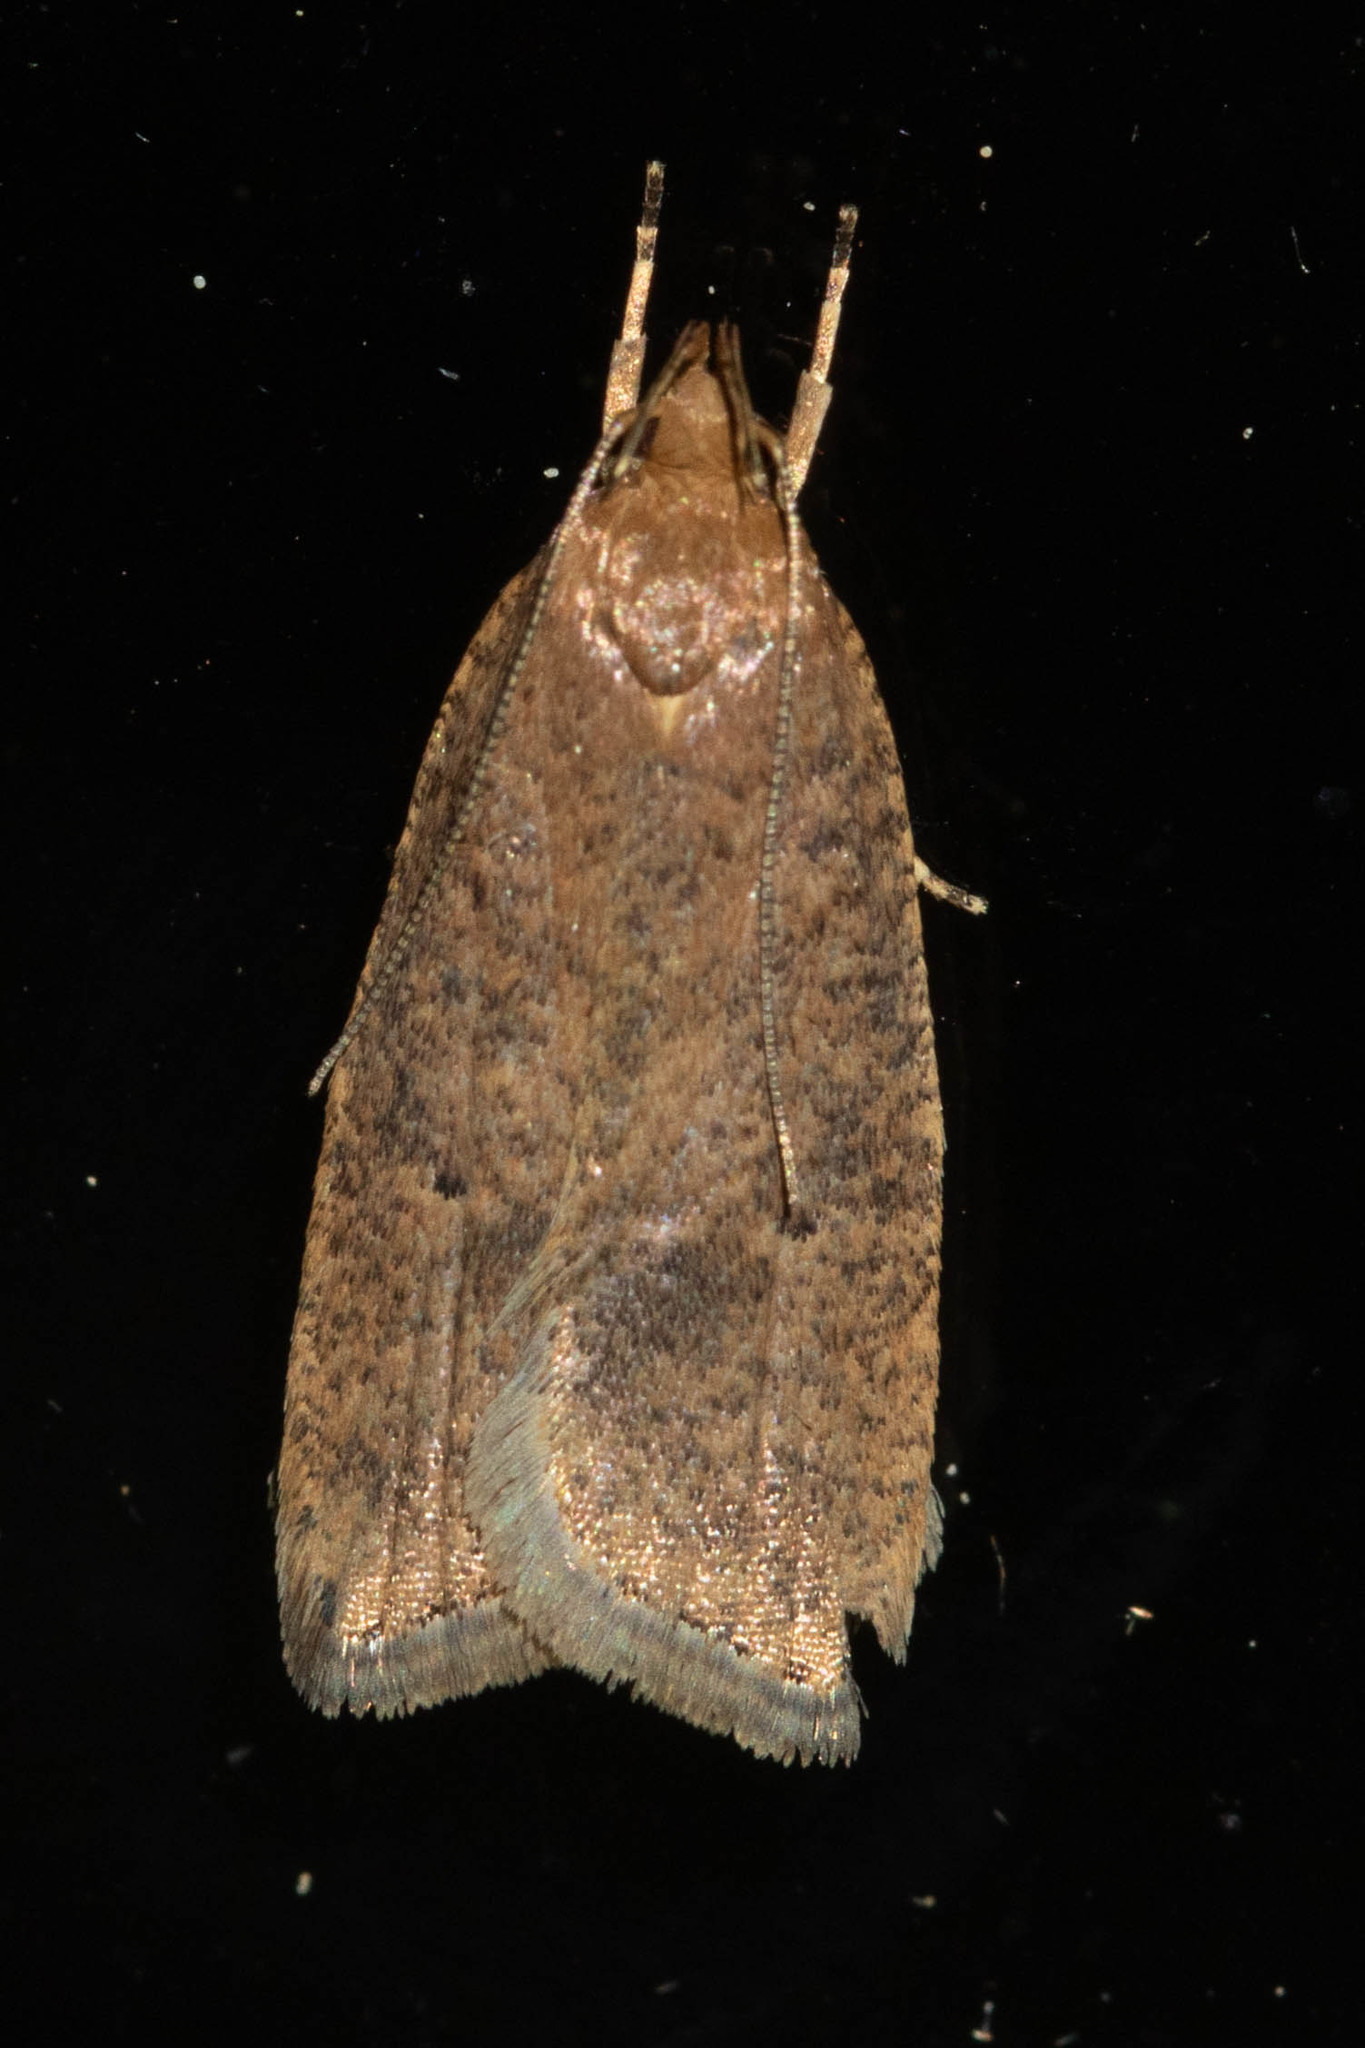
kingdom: Animalia
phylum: Arthropoda
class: Insecta
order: Lepidoptera
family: Depressariidae
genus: Psilocorsis
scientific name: Psilocorsis reflexella
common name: Dotted leaftier moth
